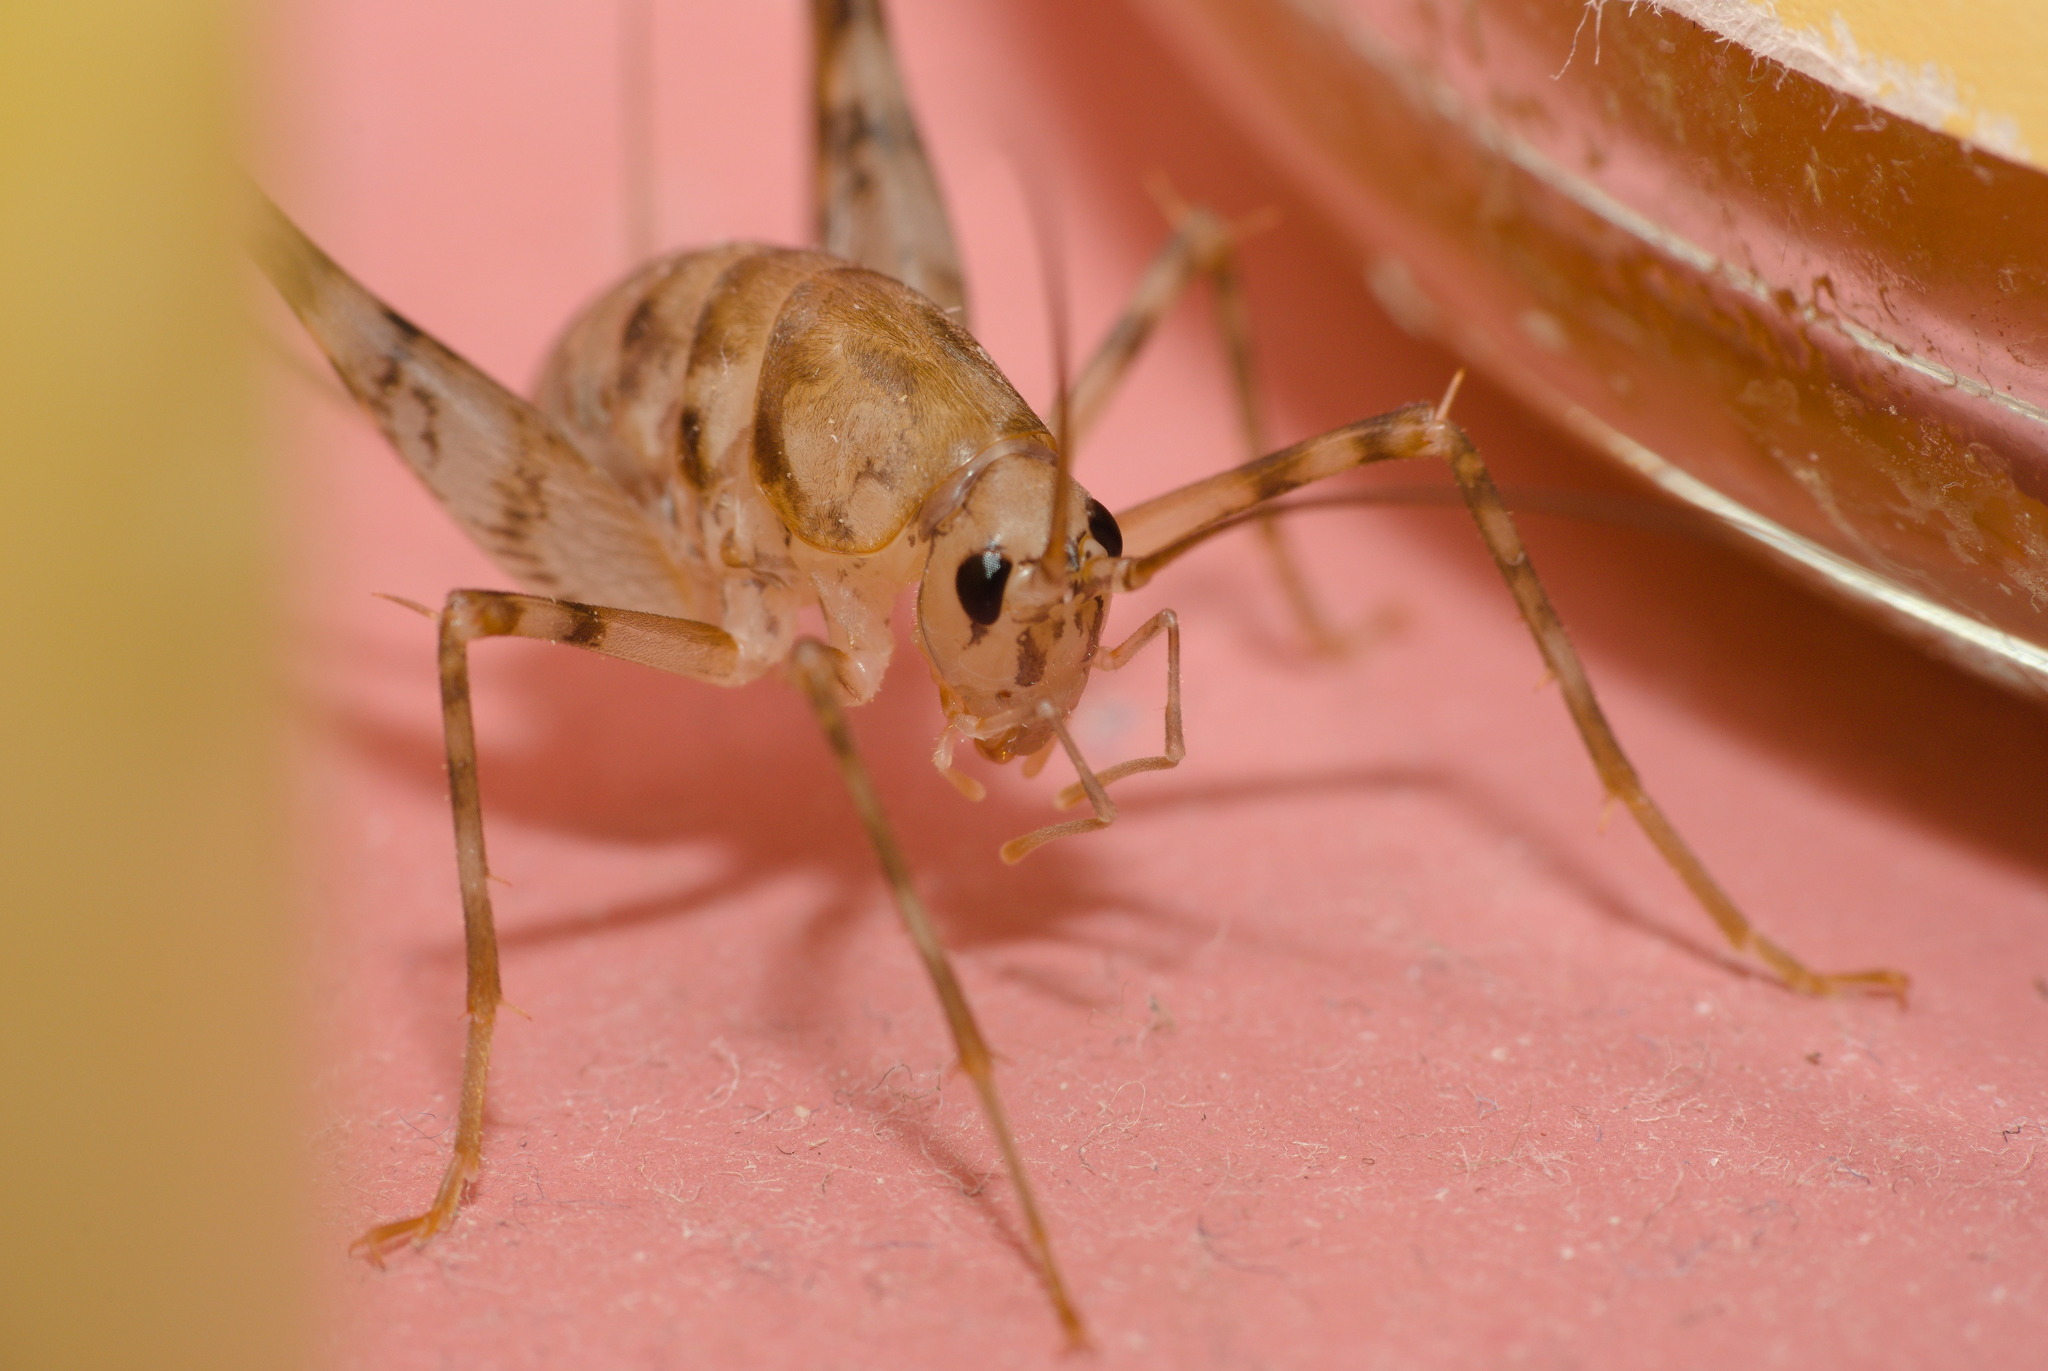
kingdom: Animalia
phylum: Arthropoda
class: Insecta
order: Orthoptera
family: Rhaphidophoridae
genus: Tachycines
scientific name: Tachycines asynamorus
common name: Greenhouse camel cricket
